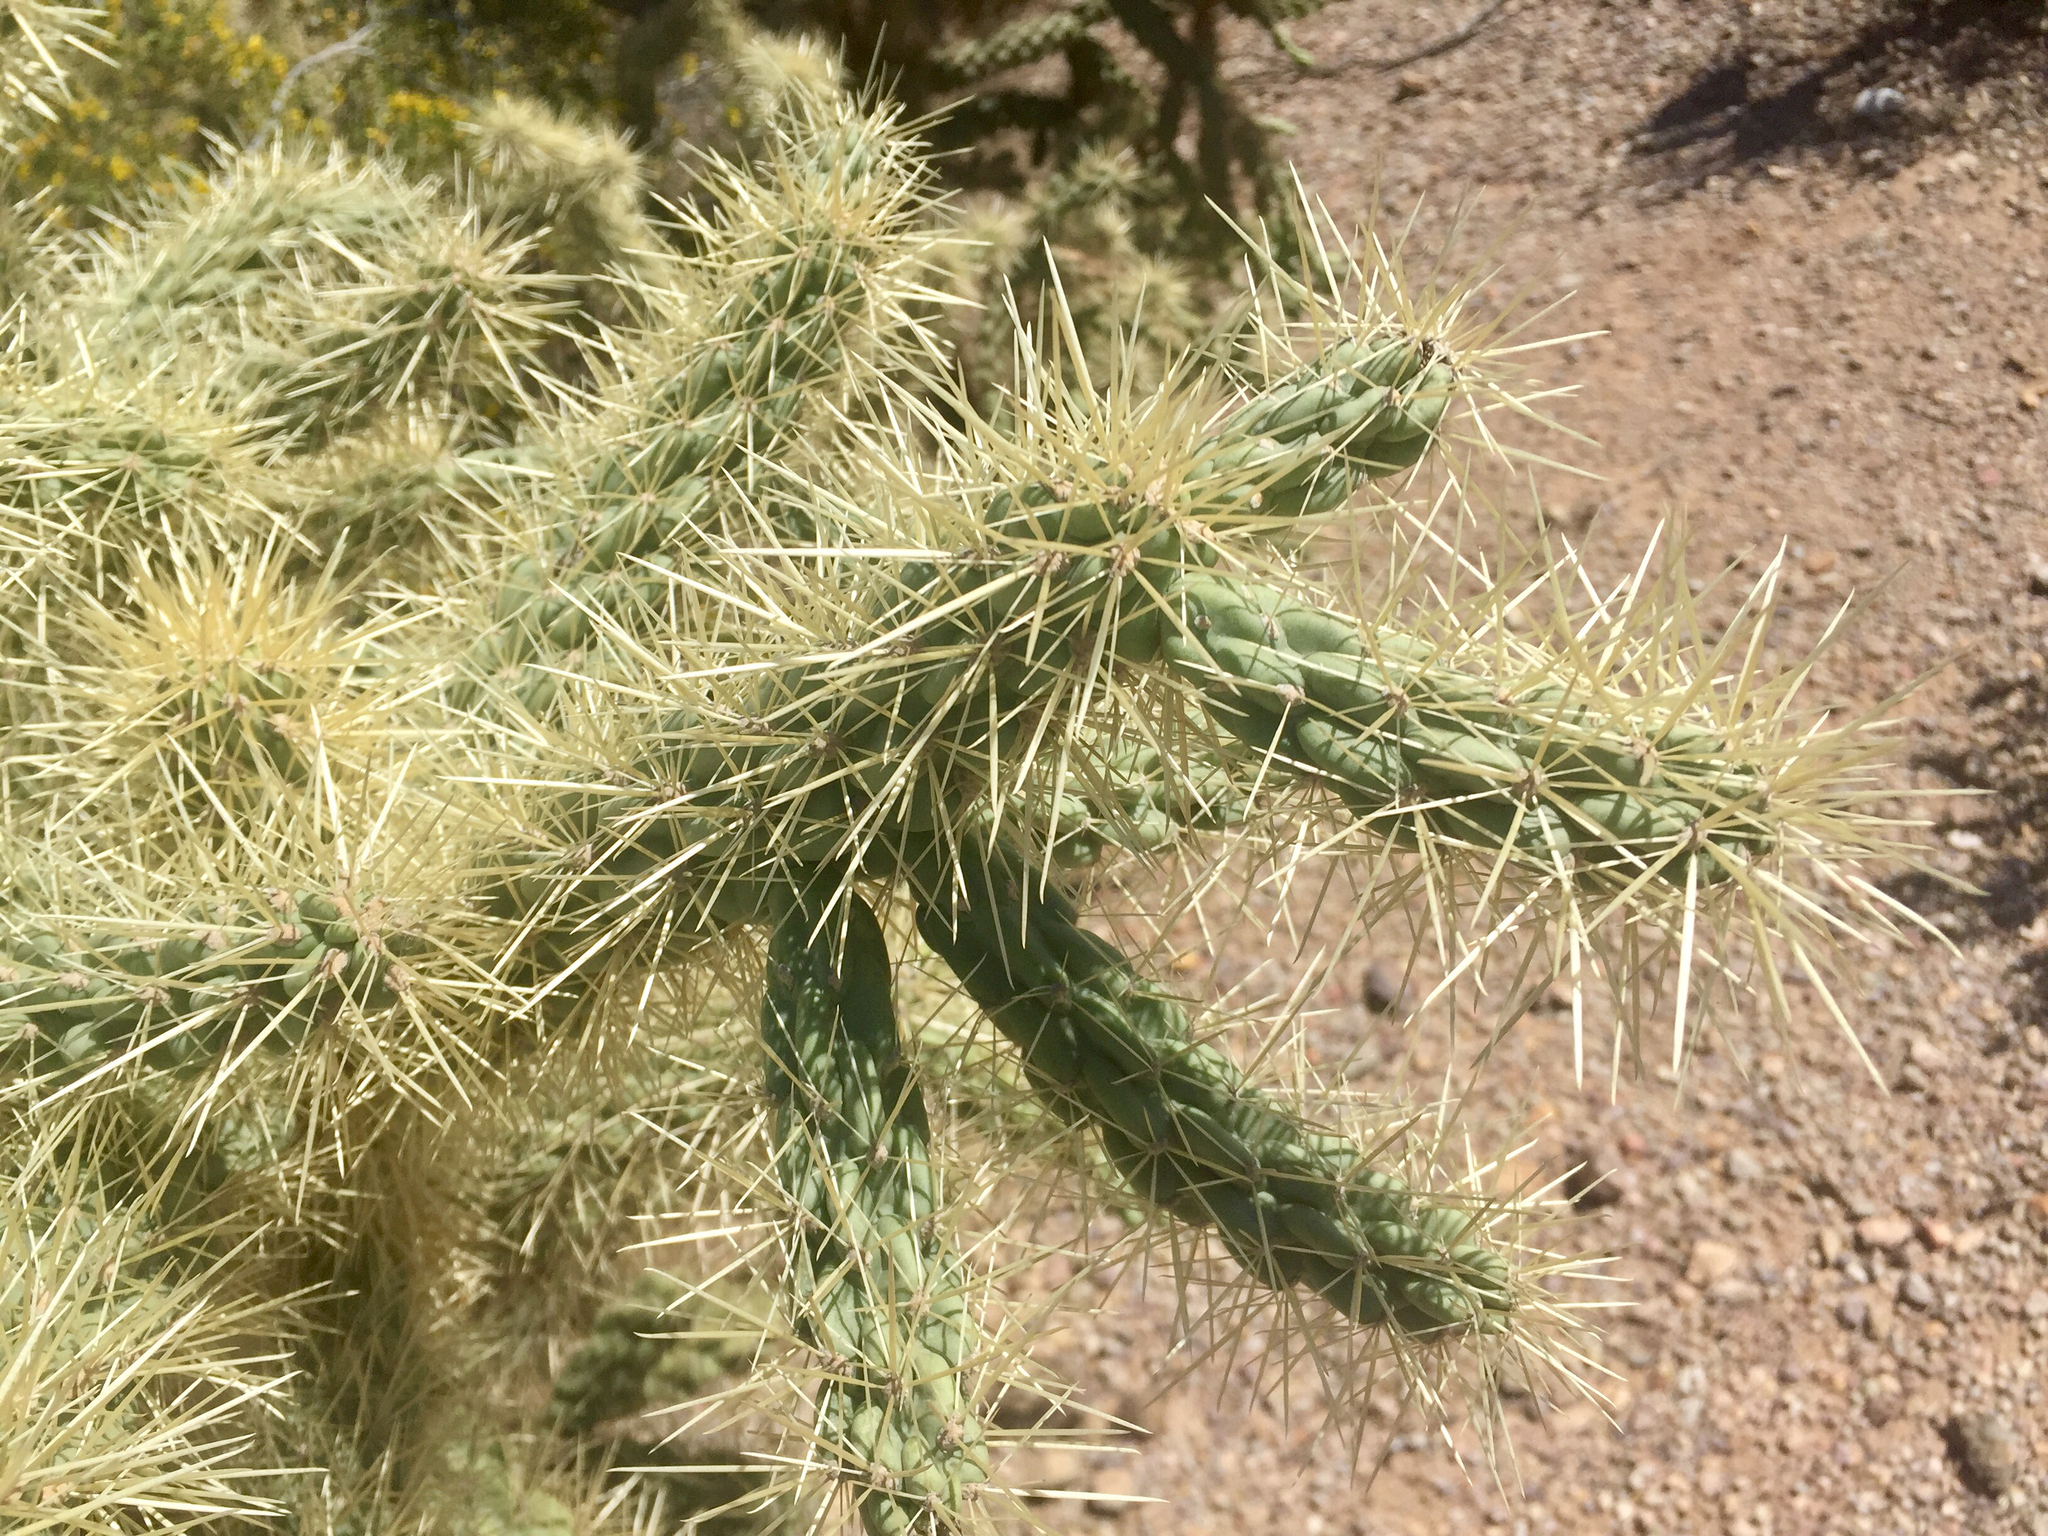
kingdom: Plantae
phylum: Tracheophyta
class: Magnoliopsida
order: Caryophyllales
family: Cactaceae
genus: Cylindropuntia
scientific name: Cylindropuntia fulgida
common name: Jumping cholla
